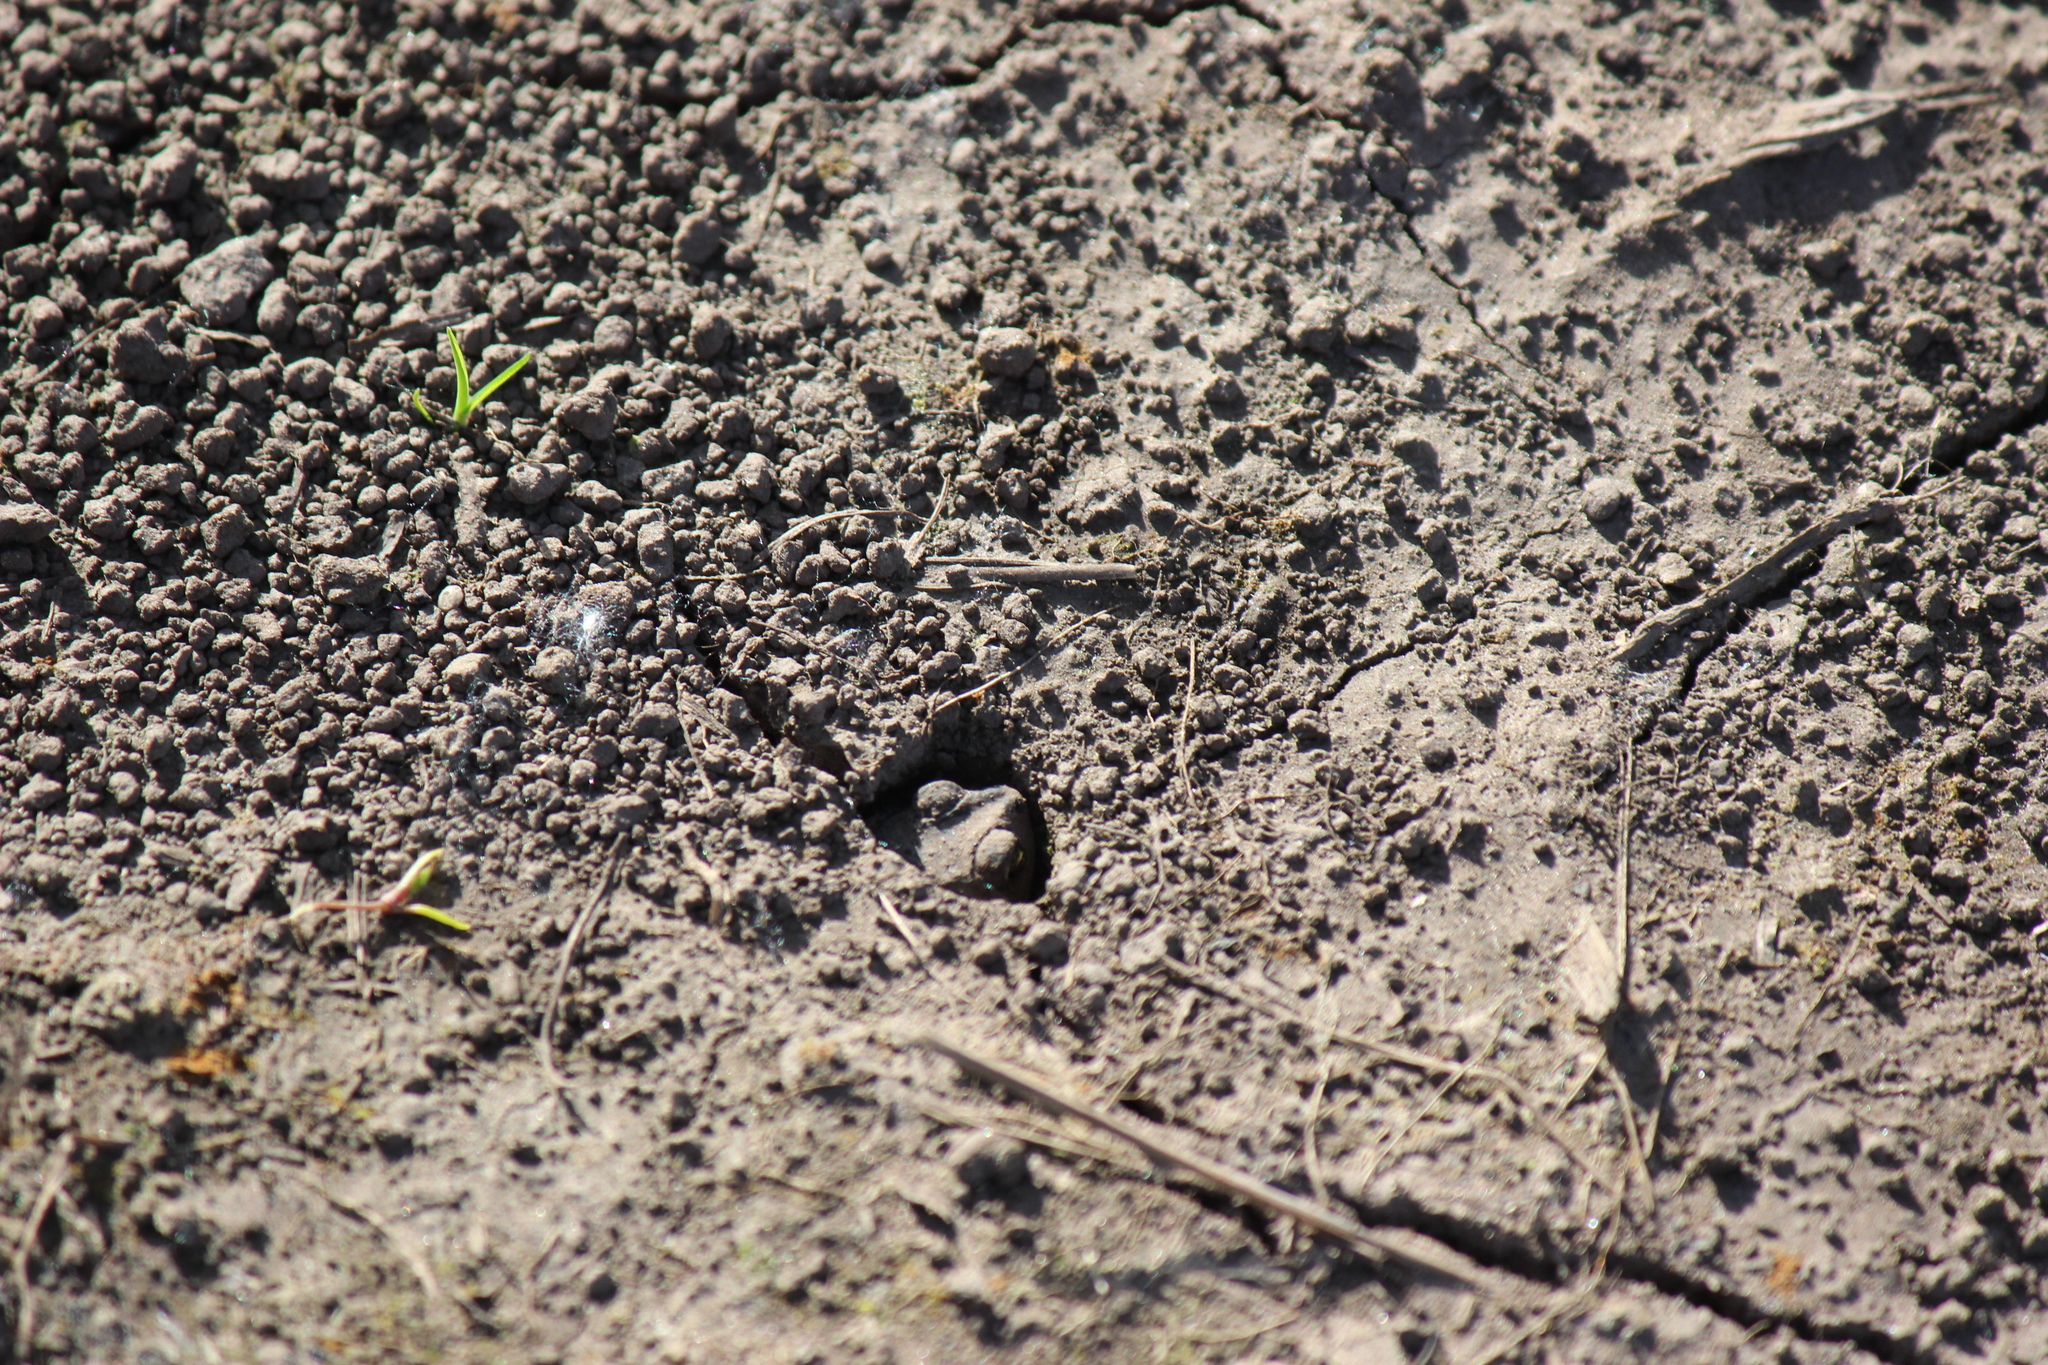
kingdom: Animalia
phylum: Chordata
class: Amphibia
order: Anura
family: Bufonidae
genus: Rhinella
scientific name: Rhinella dorbignyi
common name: D´orbigny’s toad
